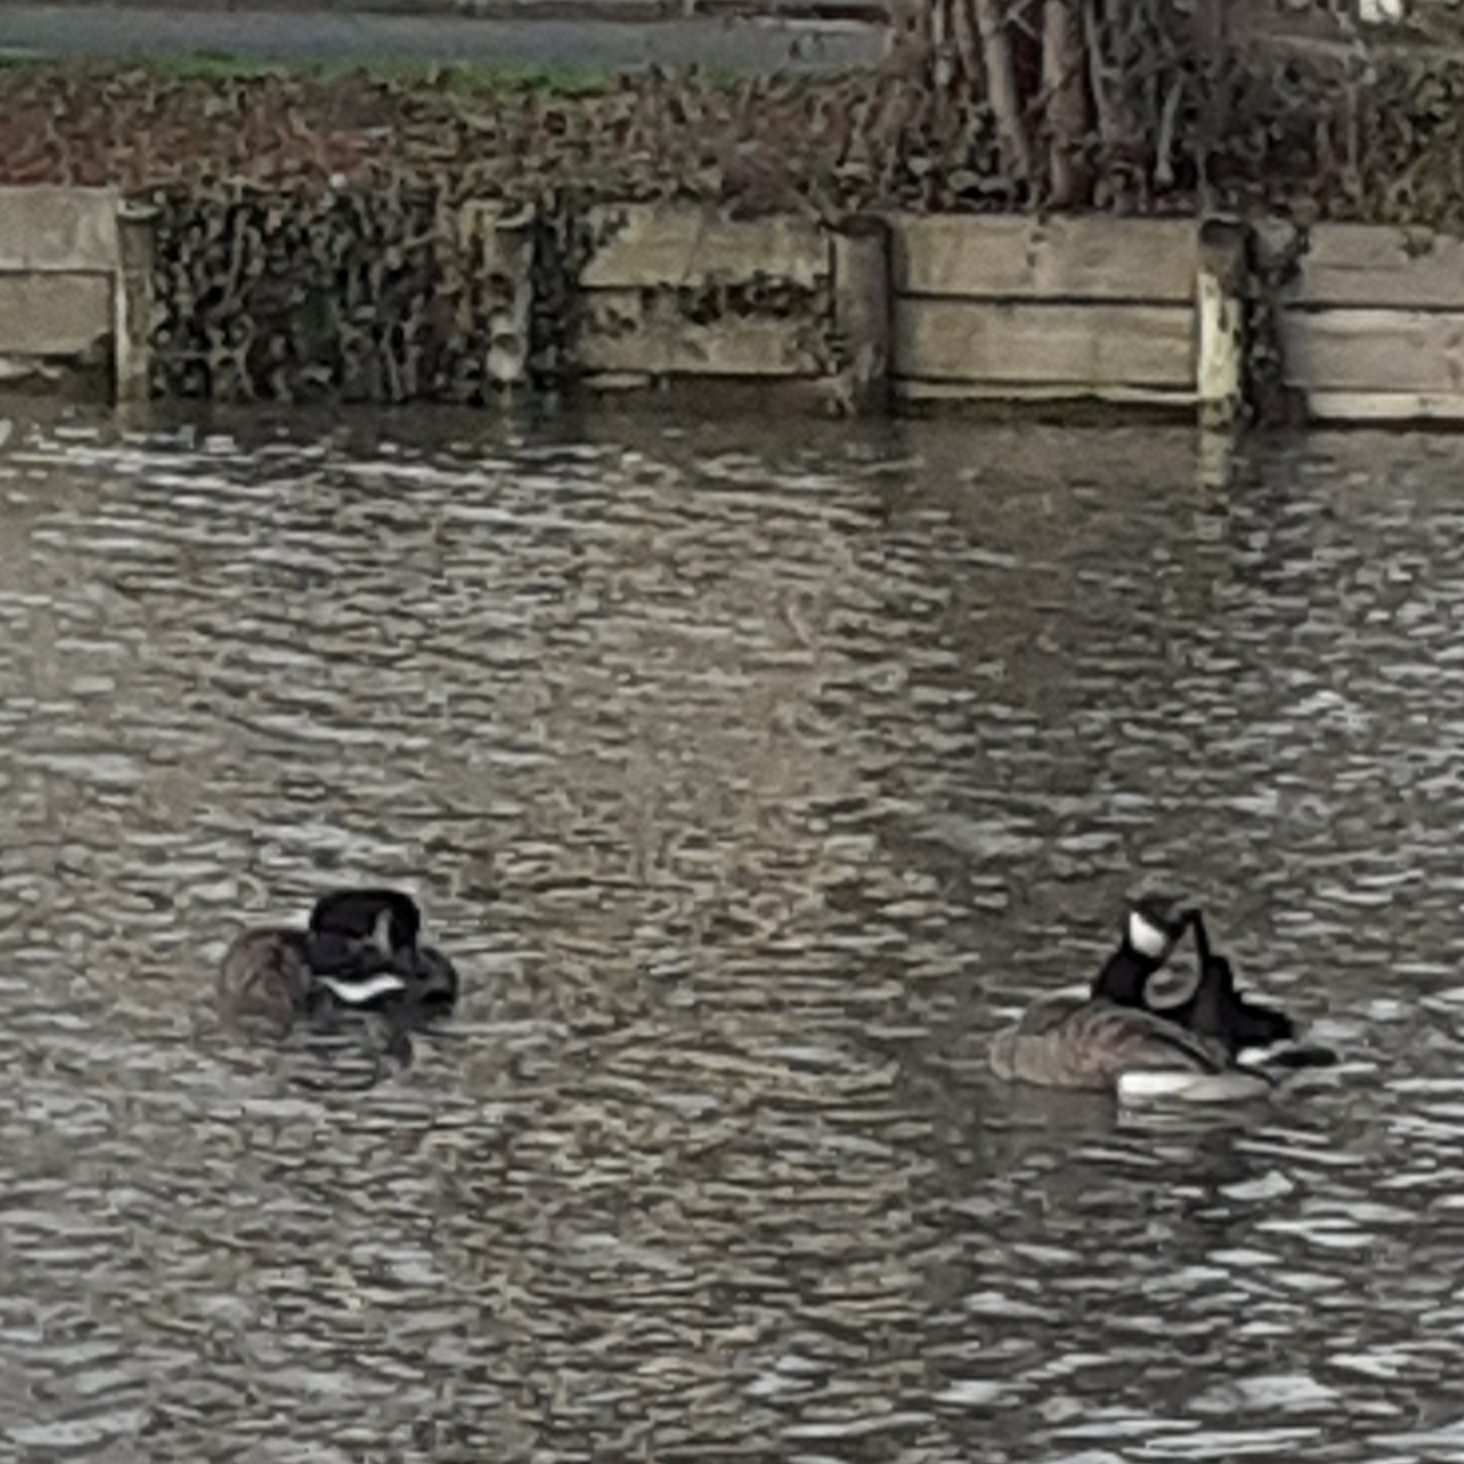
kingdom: Animalia
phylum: Chordata
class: Aves
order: Anseriformes
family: Anatidae
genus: Branta
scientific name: Branta canadensis
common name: Canada goose
